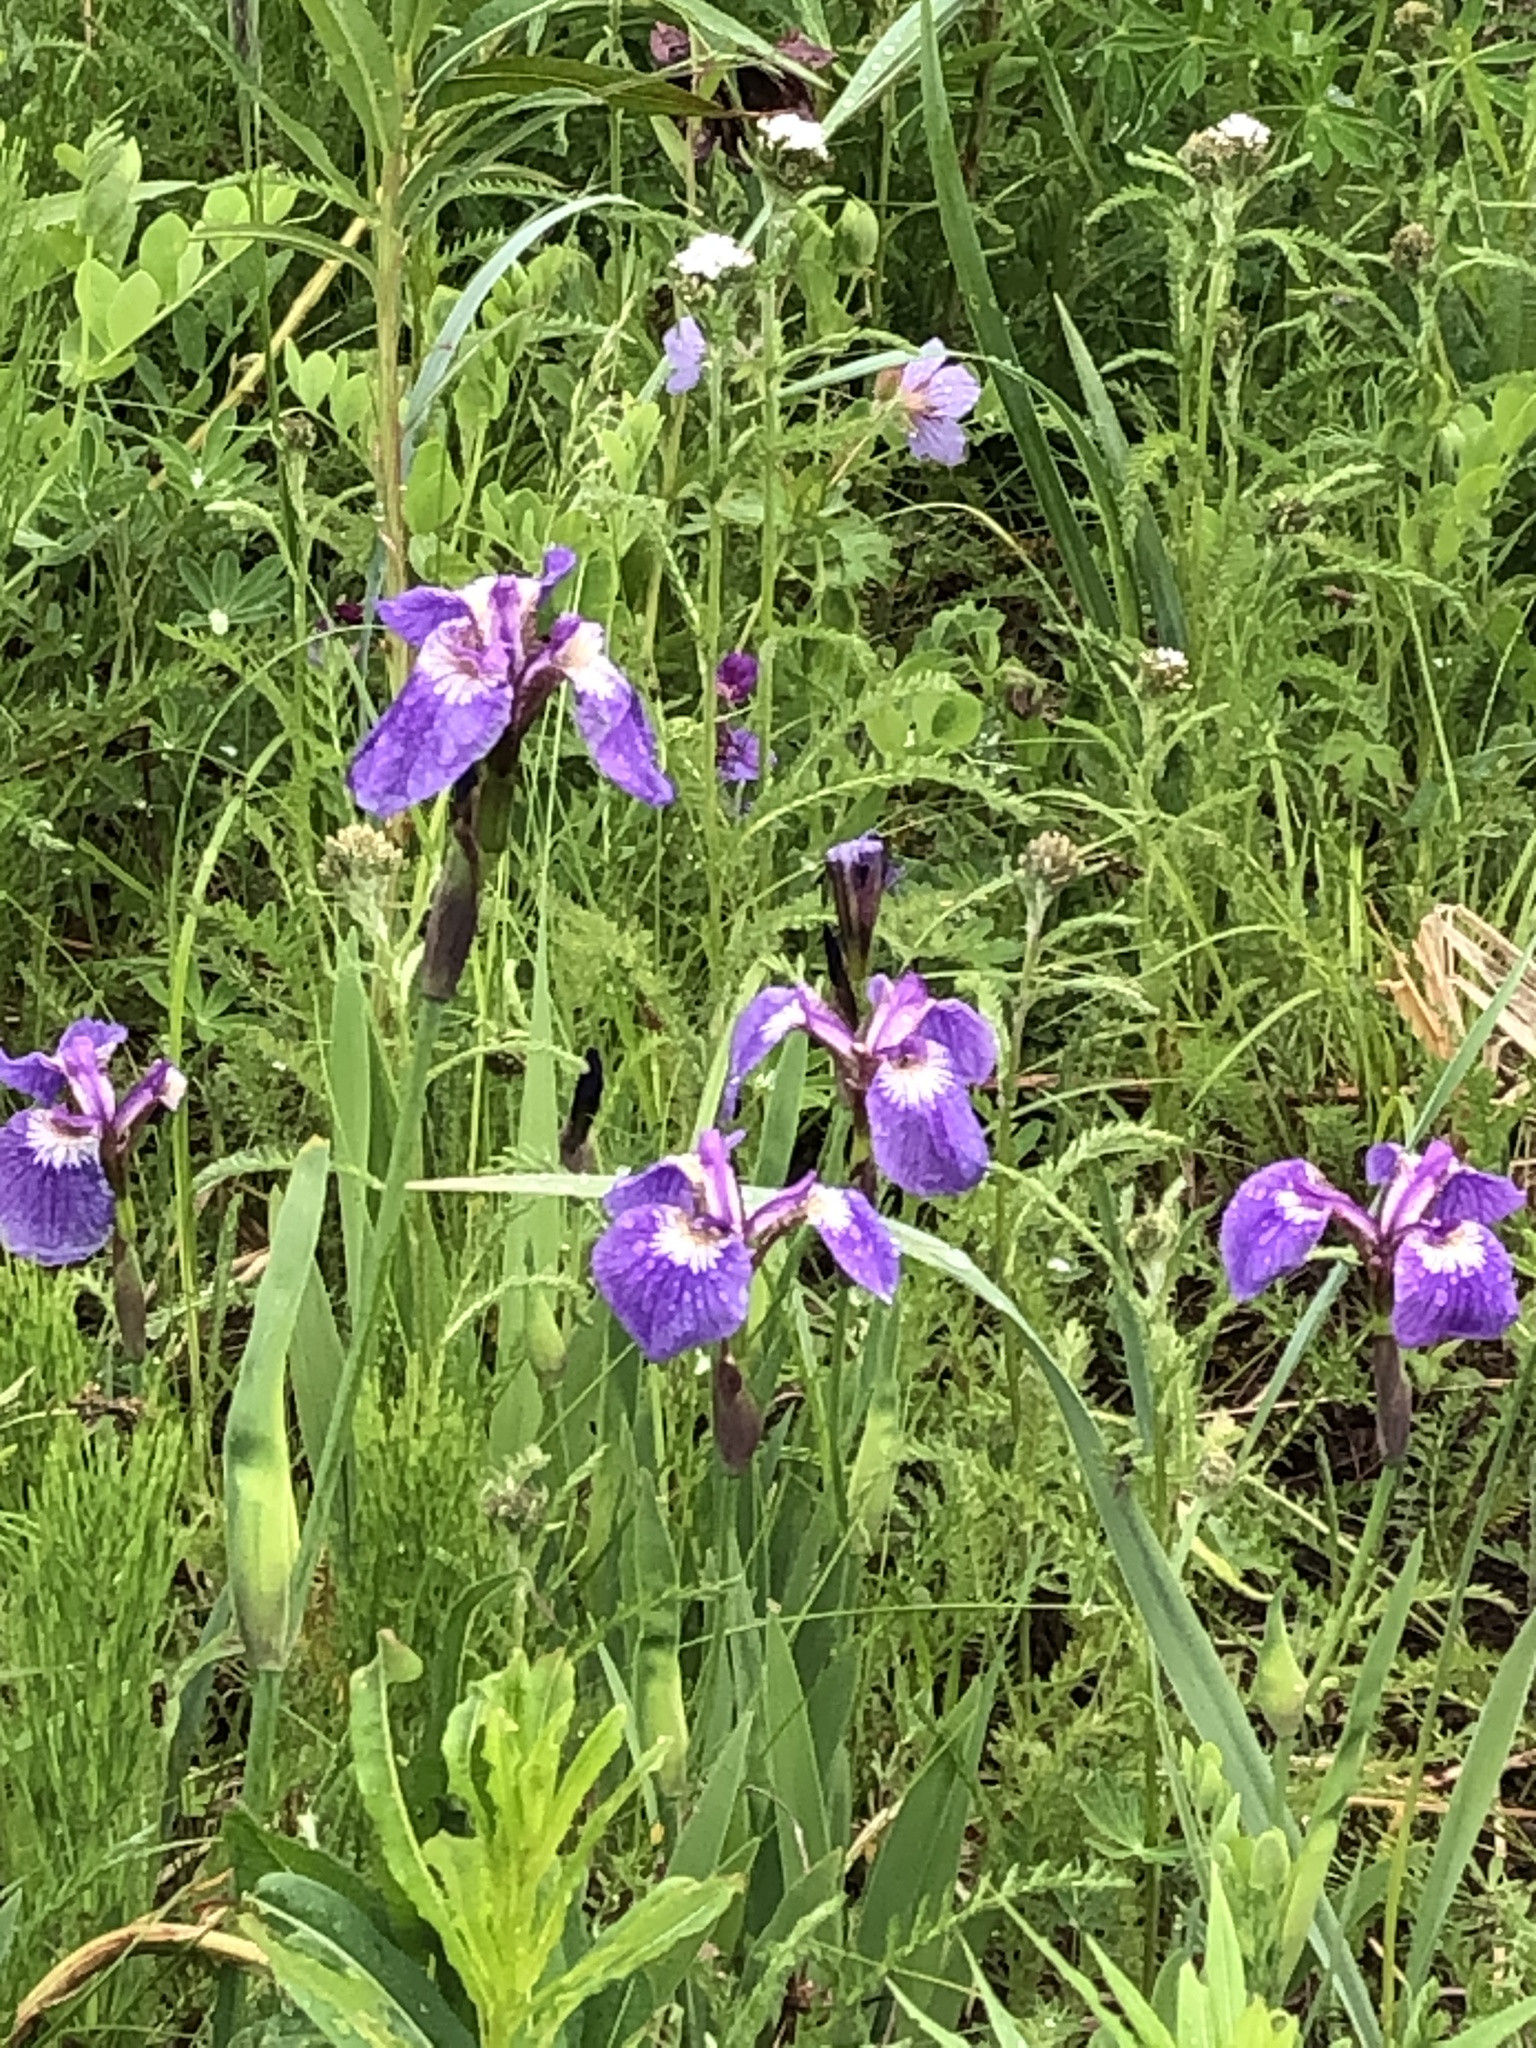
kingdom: Plantae
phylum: Tracheophyta
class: Liliopsida
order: Asparagales
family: Iridaceae
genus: Iris
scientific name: Iris setosa
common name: Arctic blue flag
